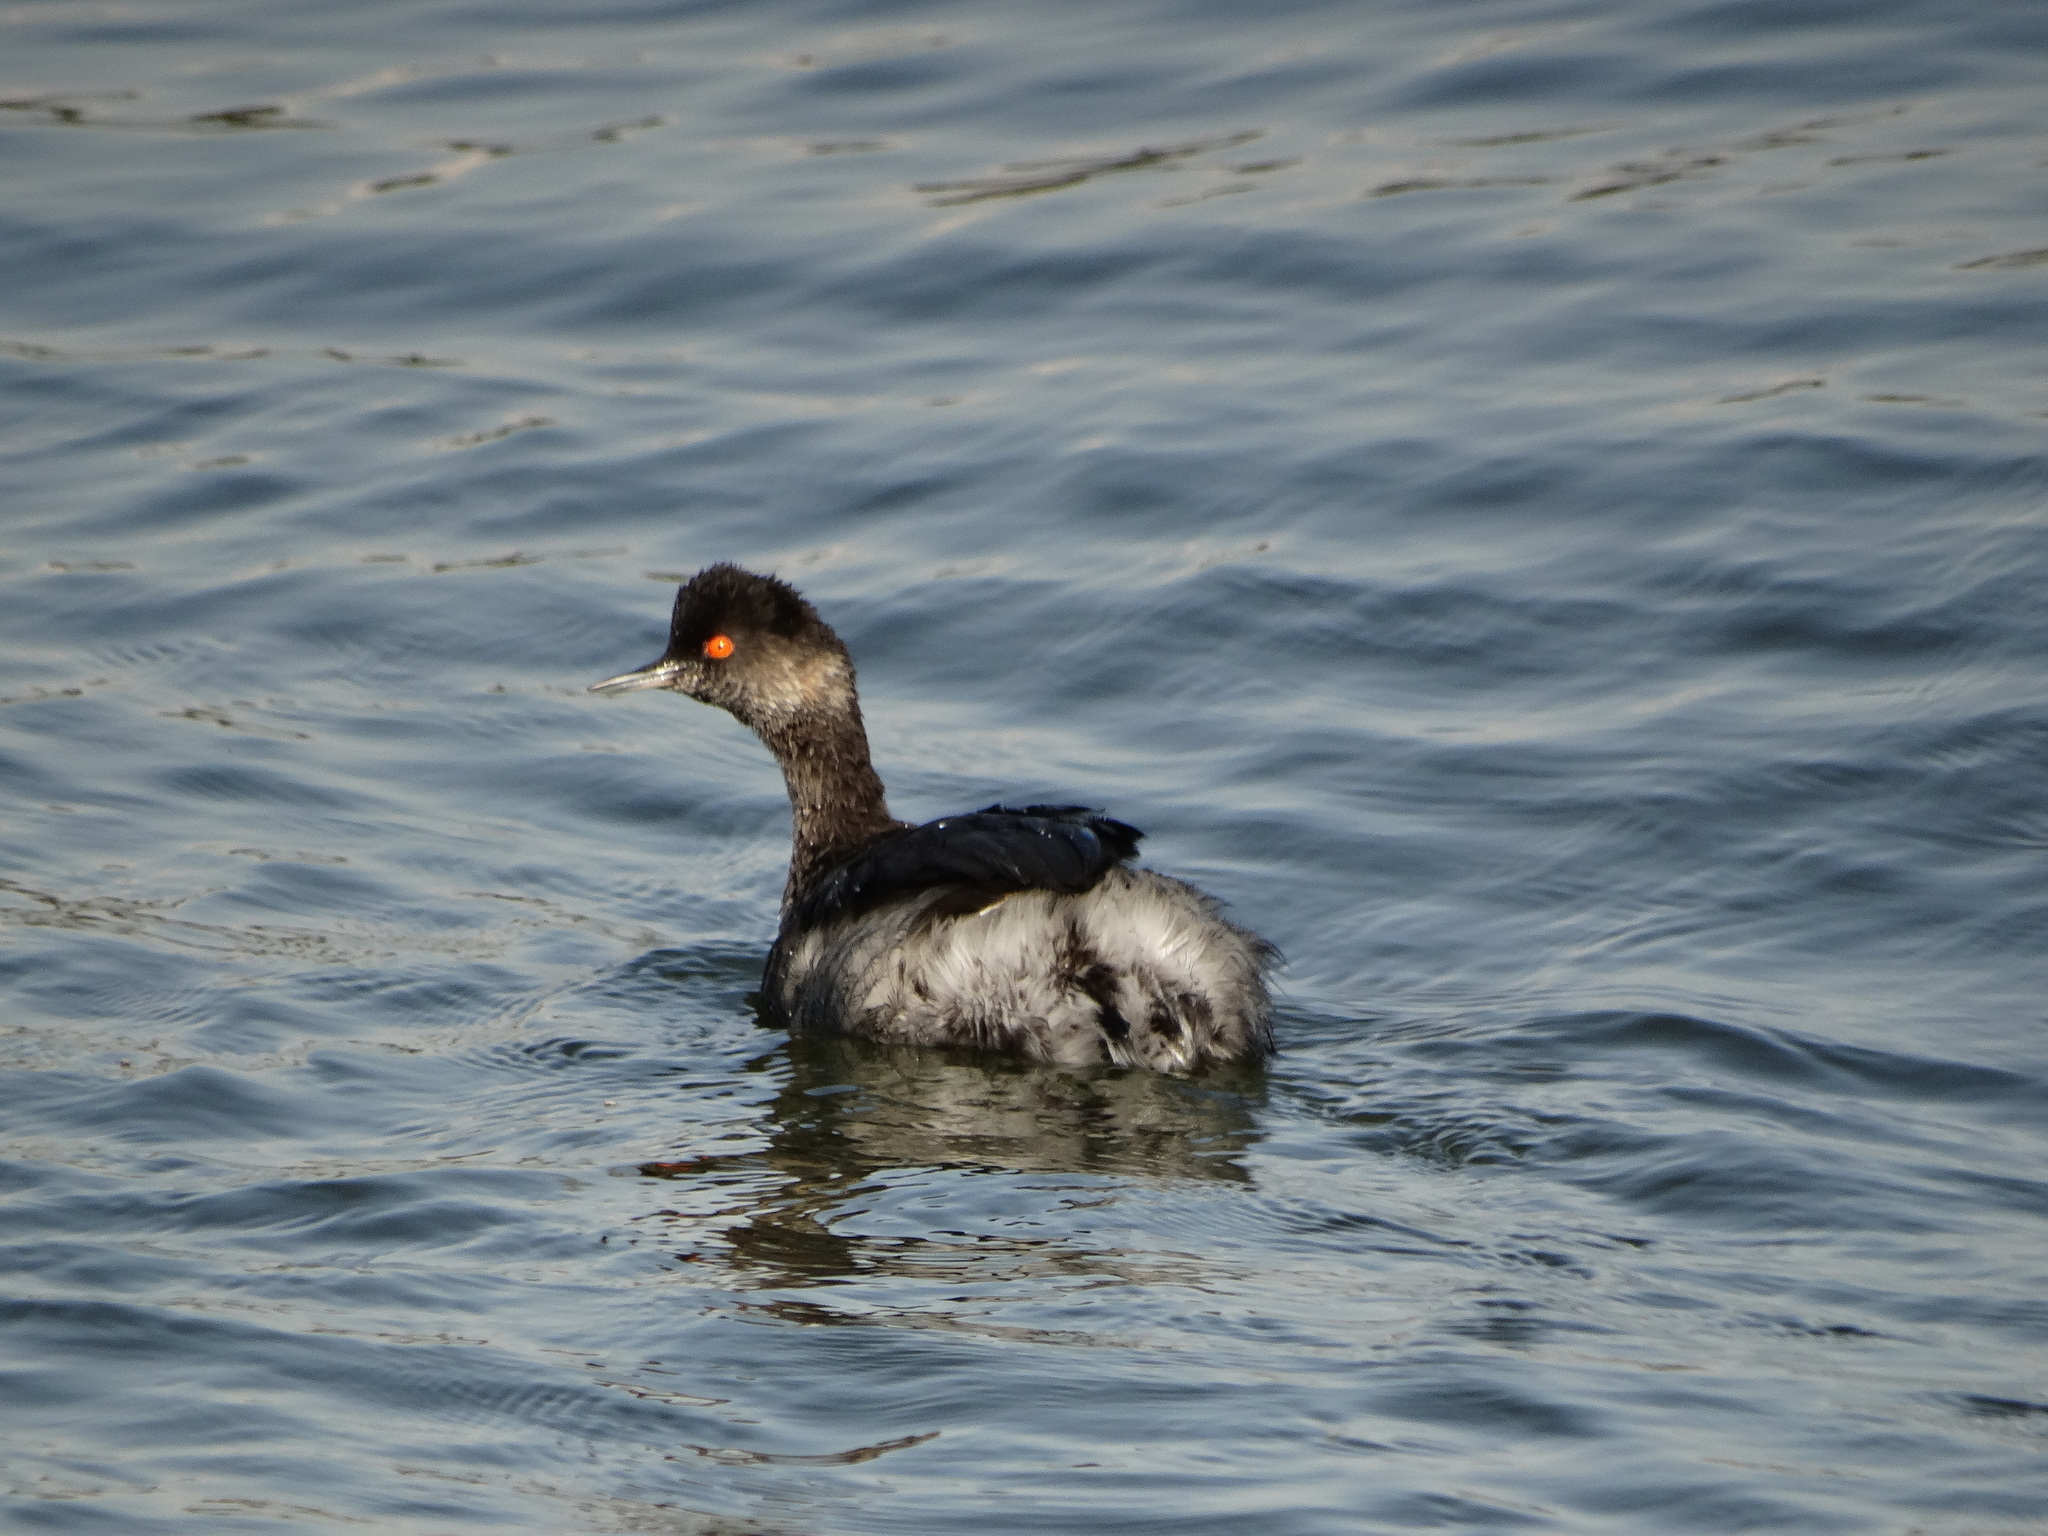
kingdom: Animalia
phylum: Chordata
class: Aves
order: Podicipediformes
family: Podicipedidae
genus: Podiceps
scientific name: Podiceps nigricollis
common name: Black-necked grebe
